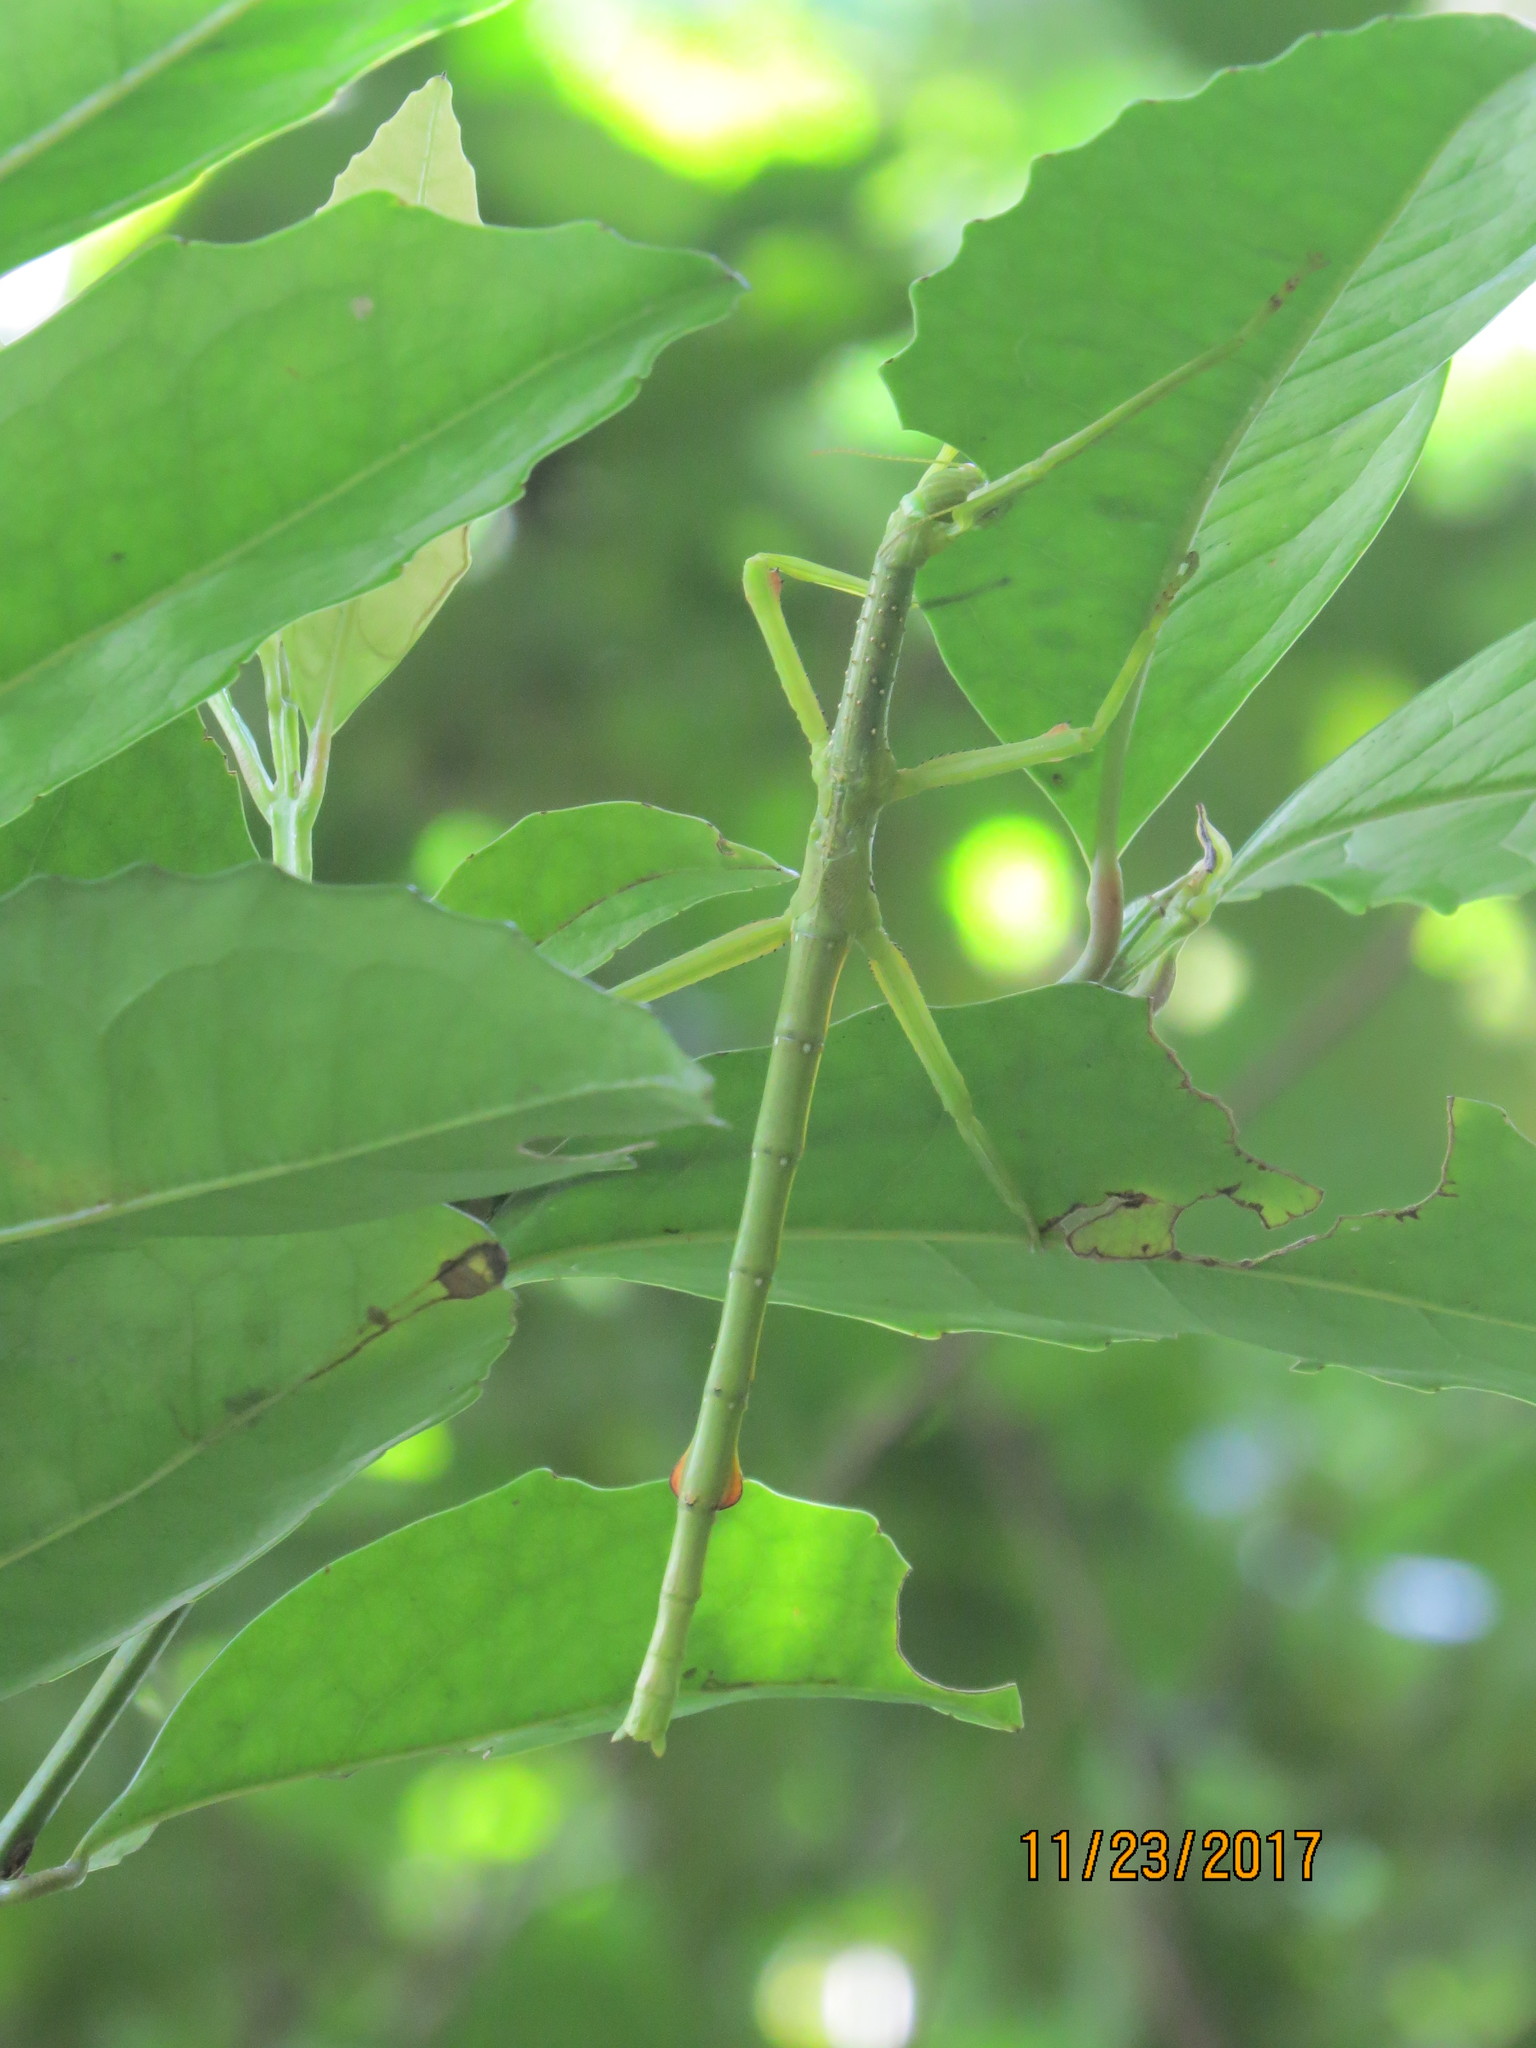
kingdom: Animalia
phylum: Arthropoda
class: Insecta
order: Phasmida
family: Phasmatidae
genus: Anchiale
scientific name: Anchiale briareus
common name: Strong stick insect
